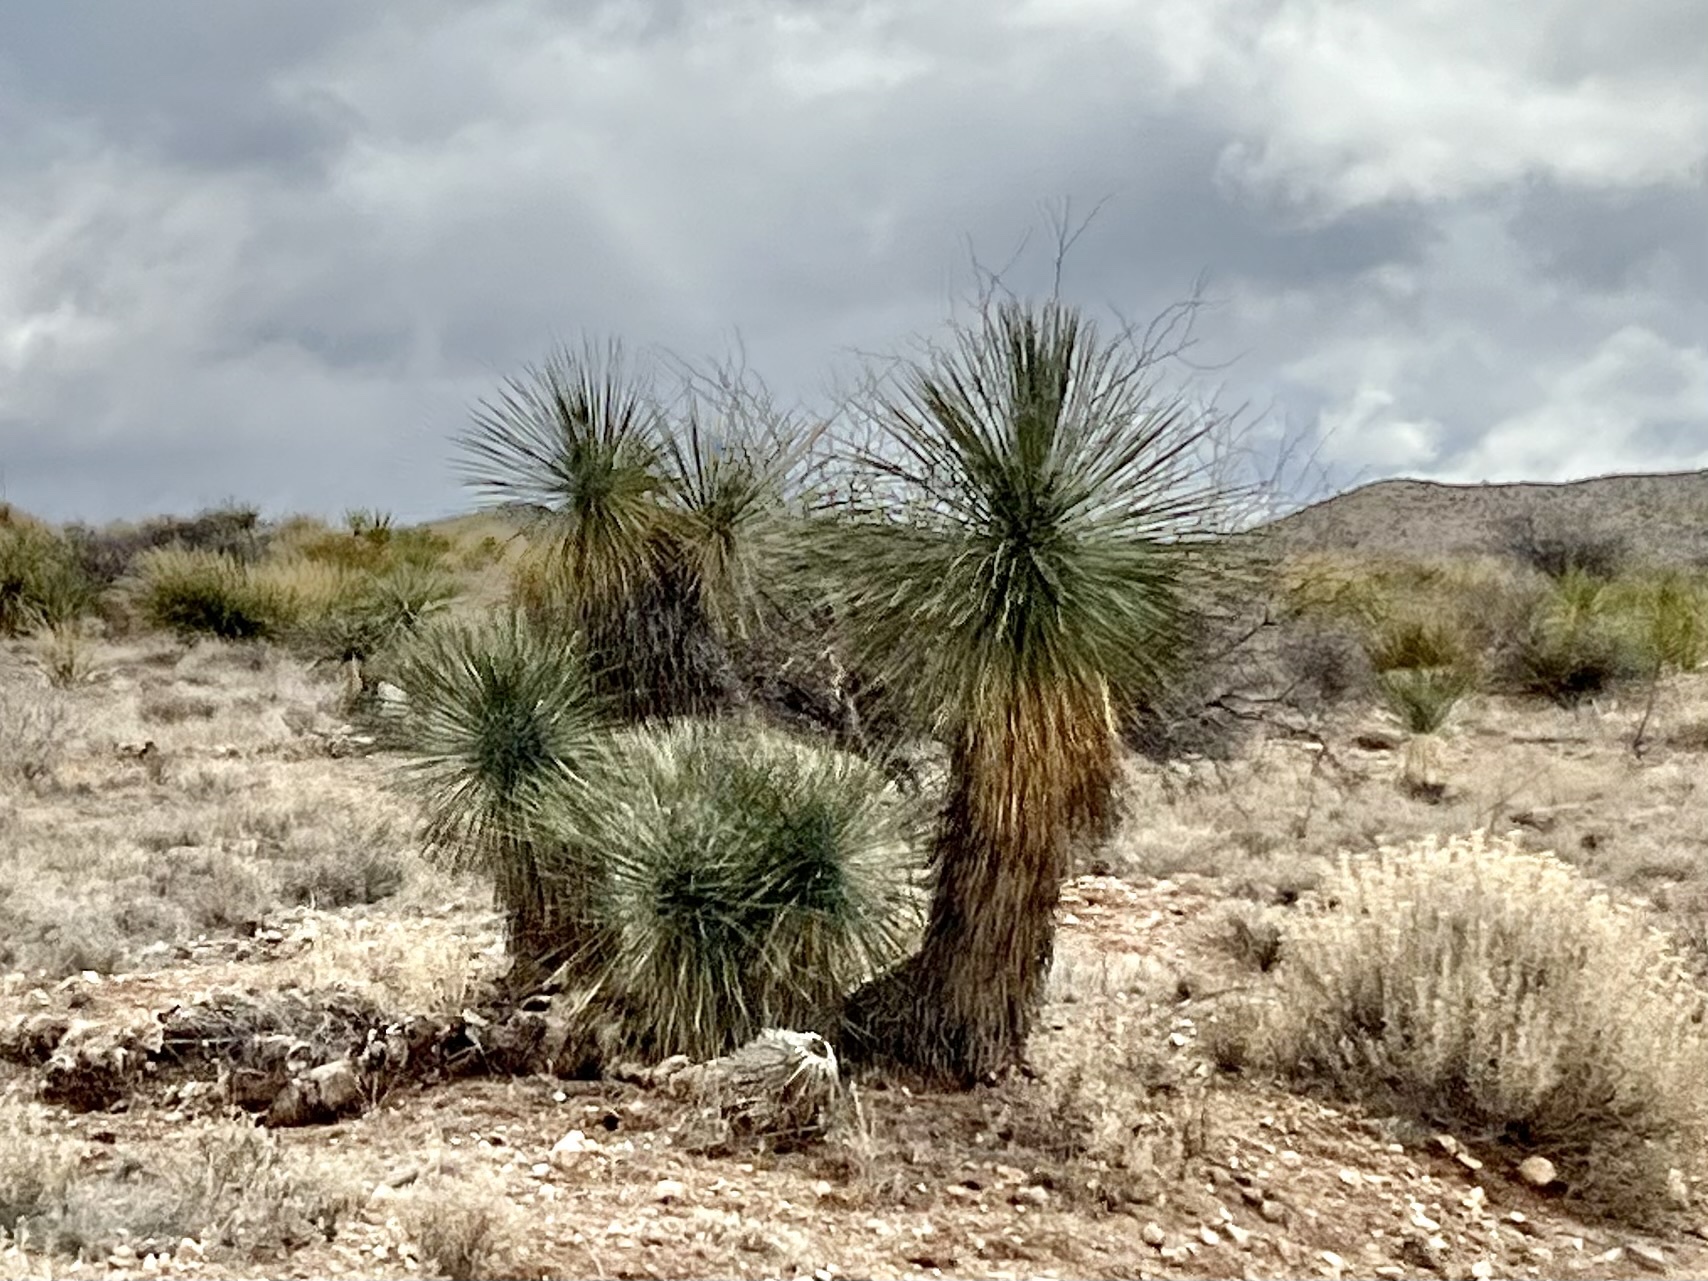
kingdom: Plantae
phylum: Tracheophyta
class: Liliopsida
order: Asparagales
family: Asparagaceae
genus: Yucca
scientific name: Yucca elata
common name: Palmella
